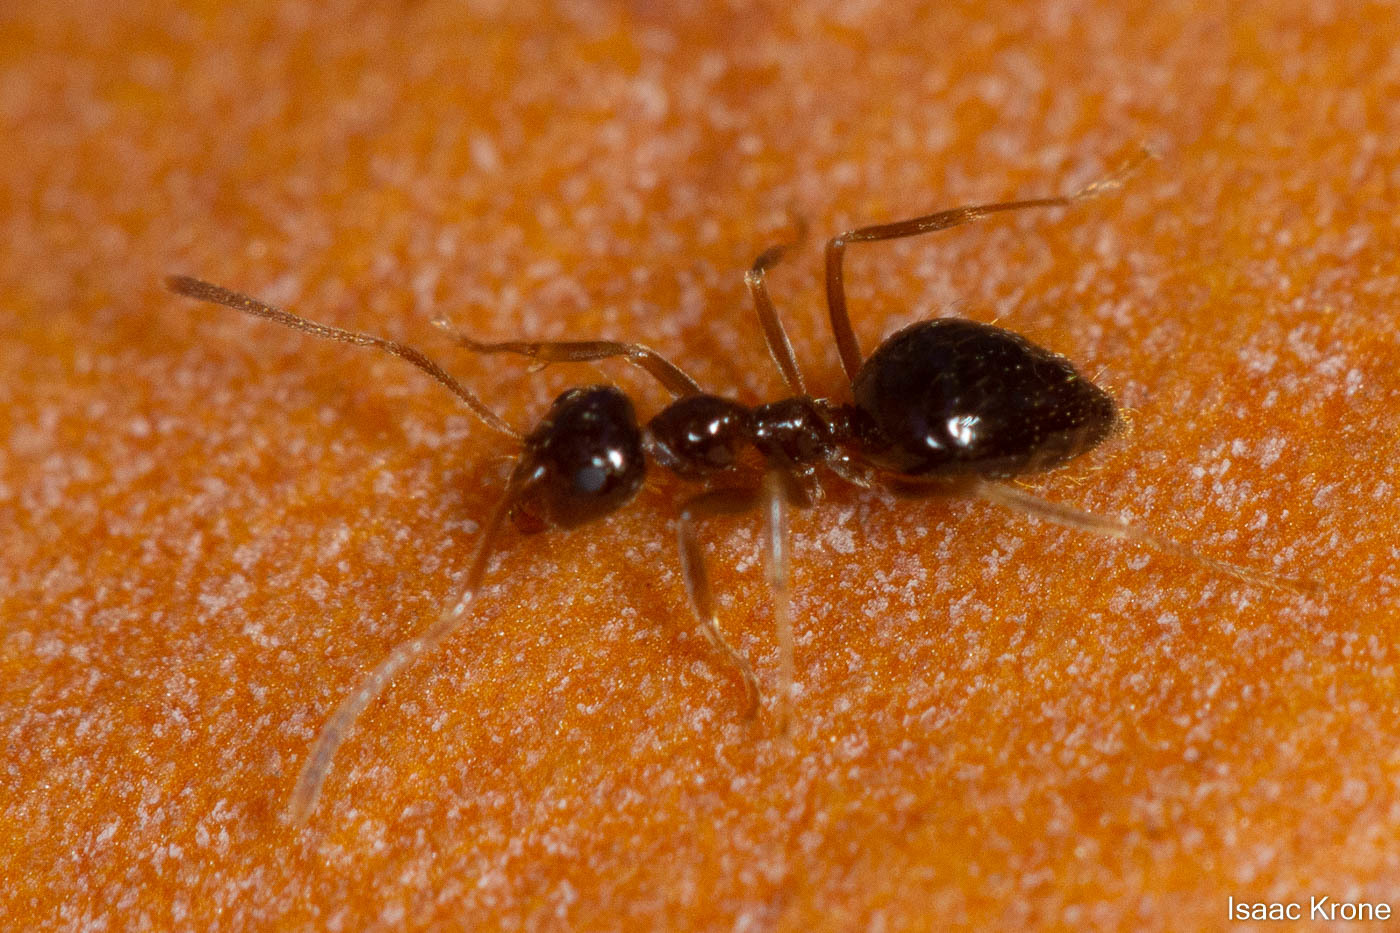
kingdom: Animalia
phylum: Arthropoda
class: Insecta
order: Hymenoptera
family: Formicidae
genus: Prenolepis
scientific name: Prenolepis imparis
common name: Small honey ant
